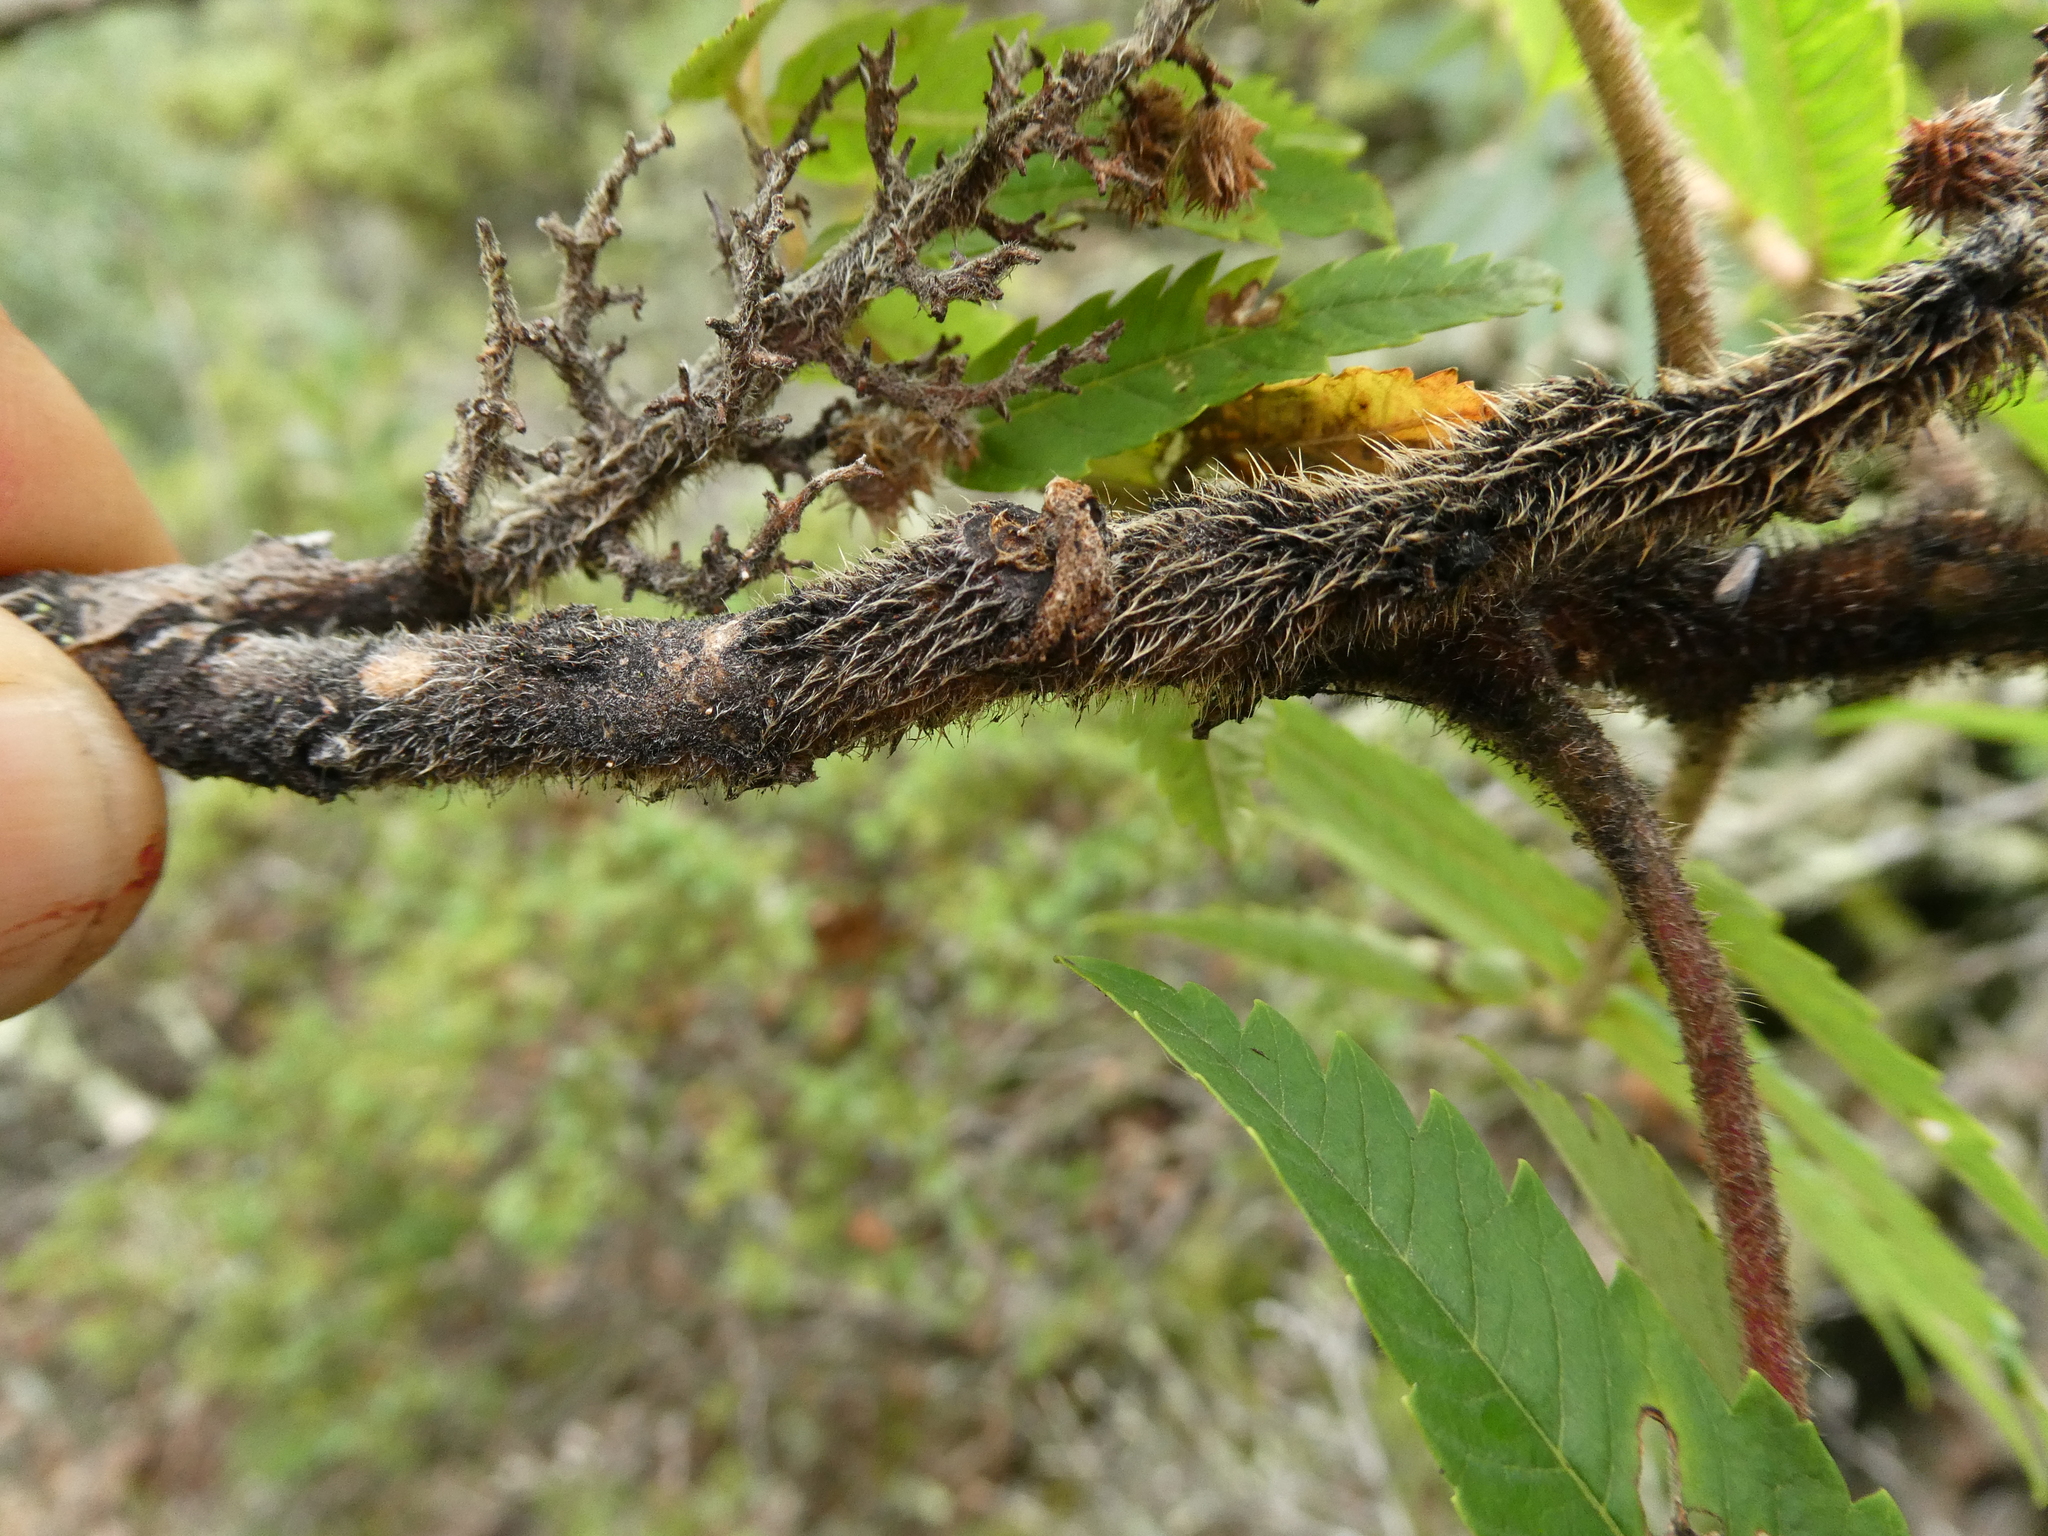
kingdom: Plantae
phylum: Tracheophyta
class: Magnoliopsida
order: Sapindales
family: Anacardiaceae
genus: Rhus
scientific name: Rhus typhina
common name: Staghorn sumac
